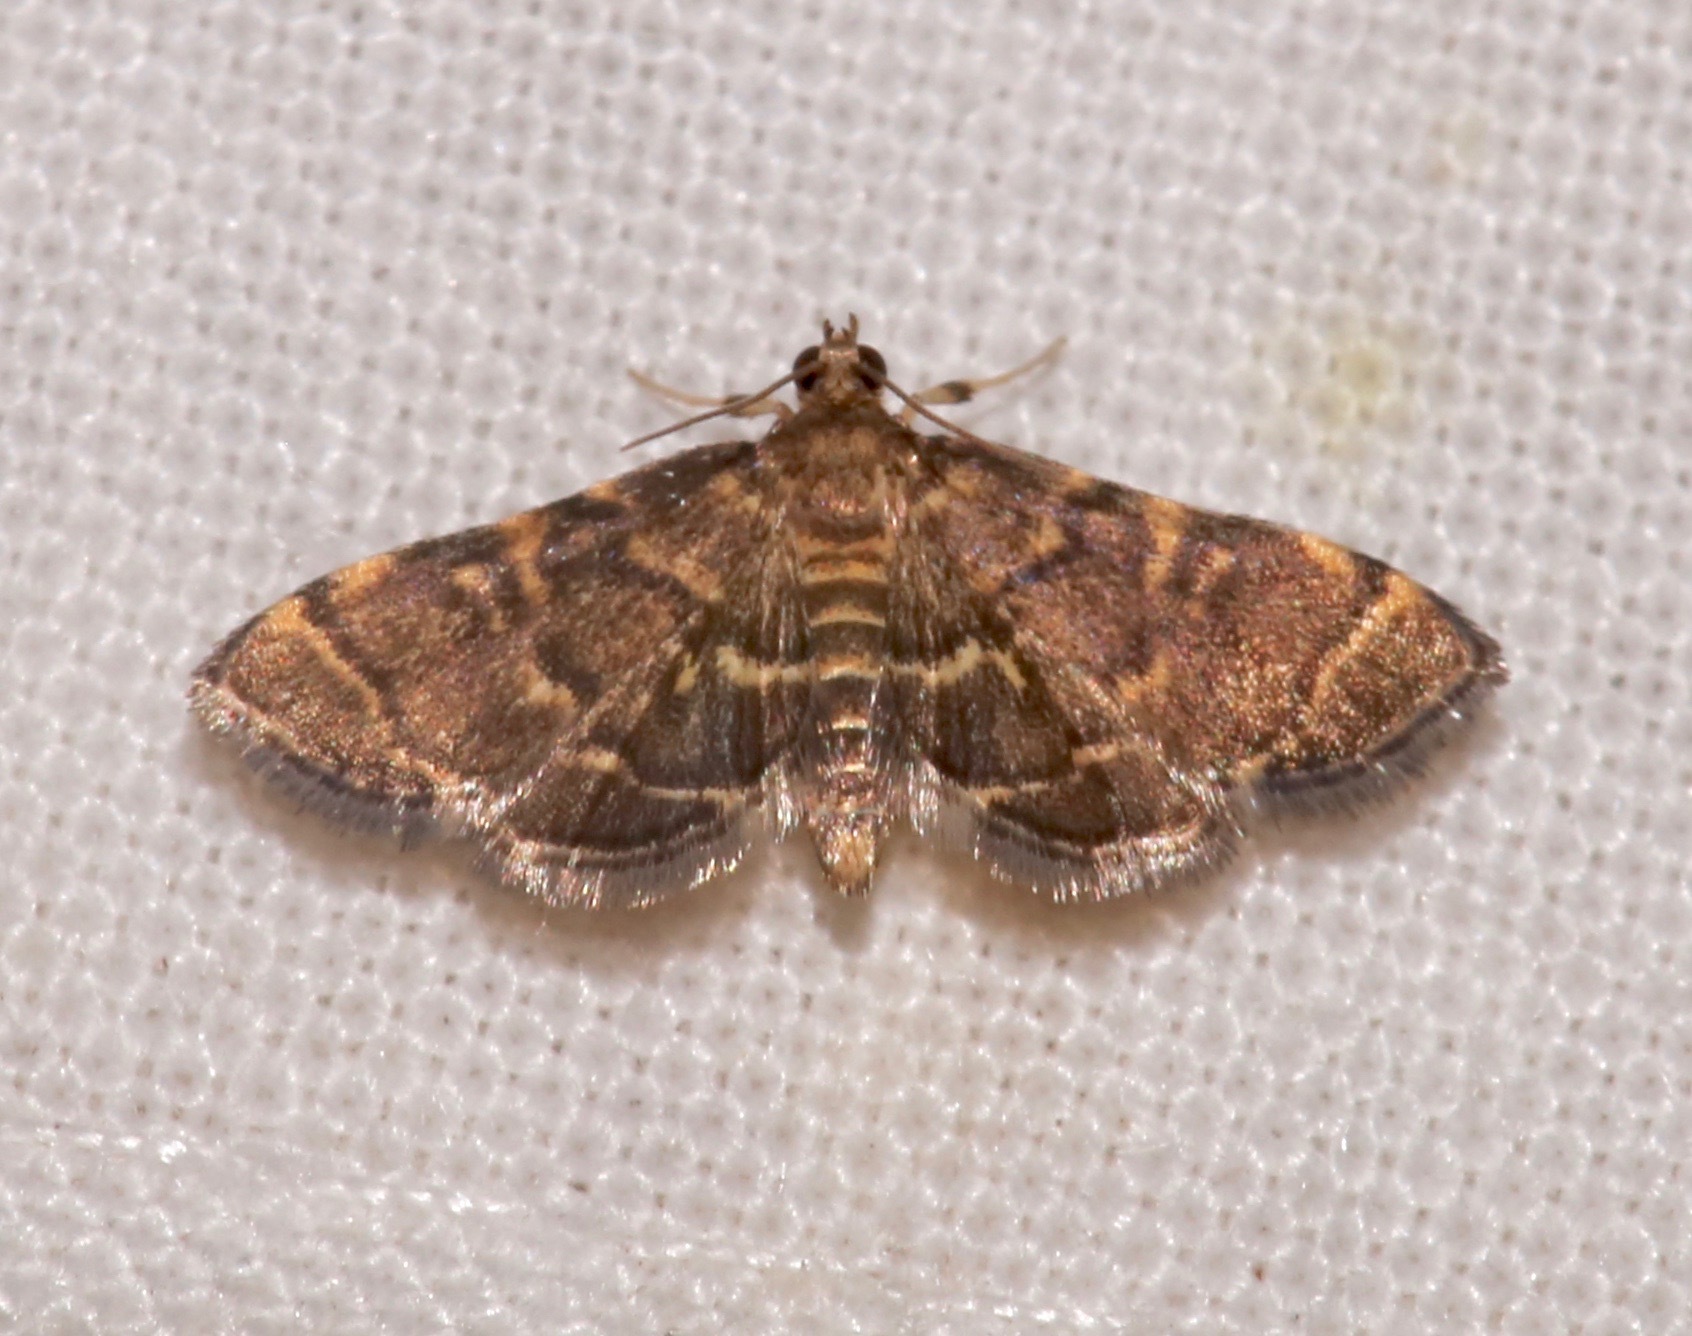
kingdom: Animalia
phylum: Arthropoda
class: Insecta
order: Lepidoptera
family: Crambidae
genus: Anageshna
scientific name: Anageshna primordialis
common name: Yellow-spotted webworm moth
